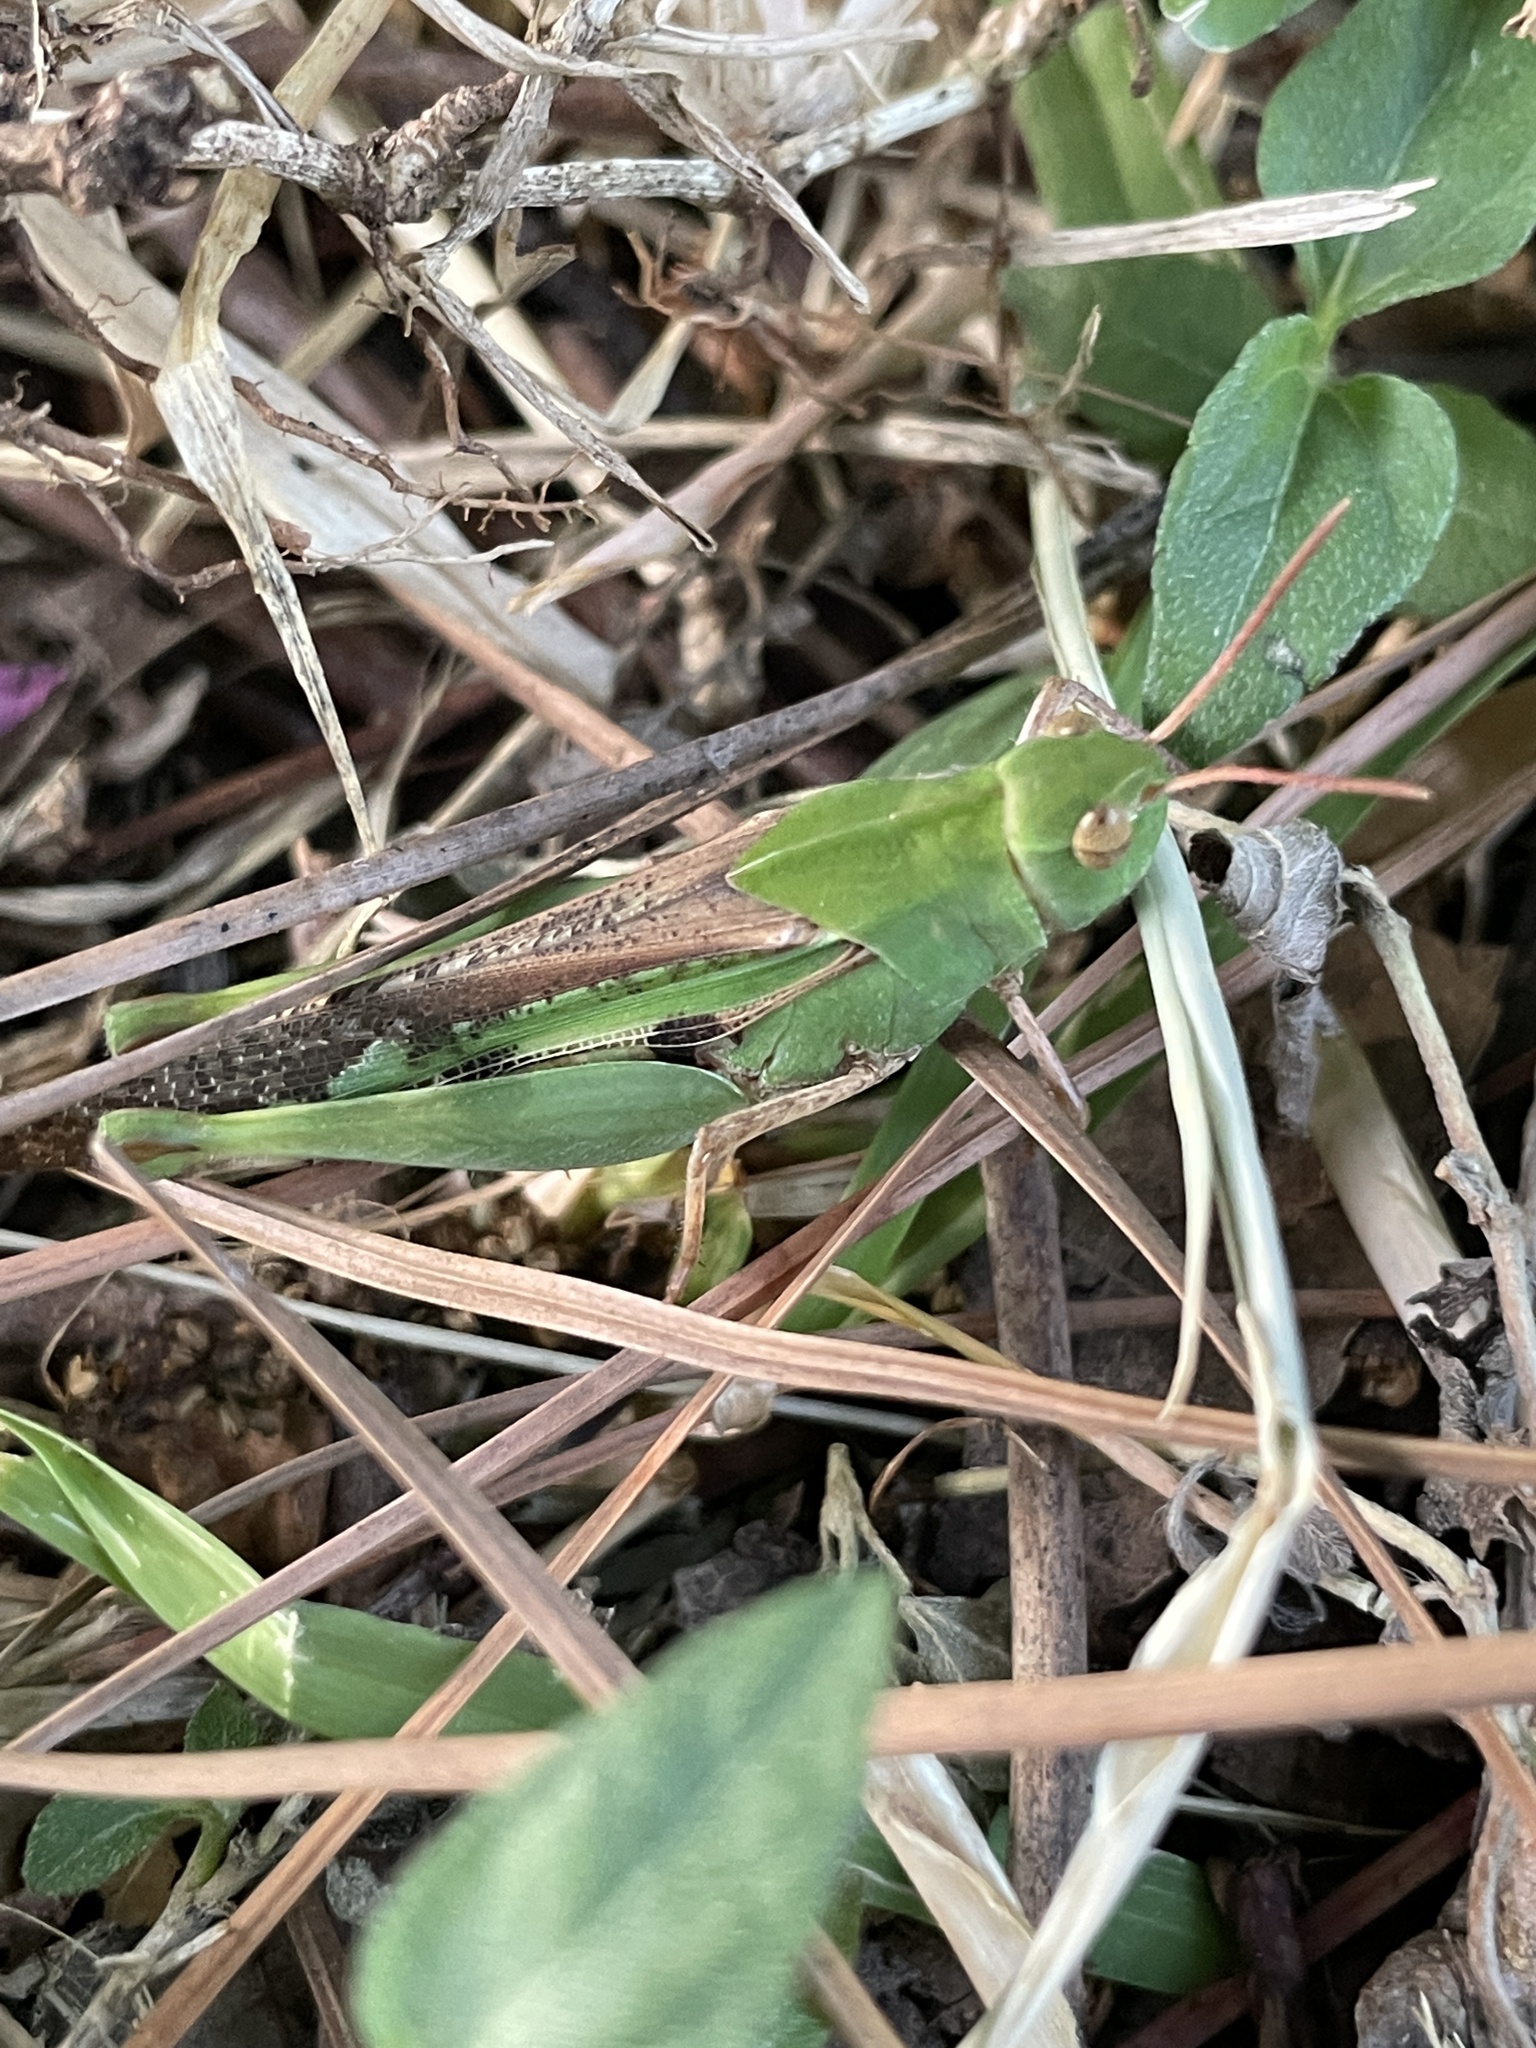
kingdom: Animalia
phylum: Arthropoda
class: Insecta
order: Orthoptera
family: Acrididae
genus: Chortophaga
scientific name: Chortophaga viridifasciata
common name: Green-striped grasshopper
